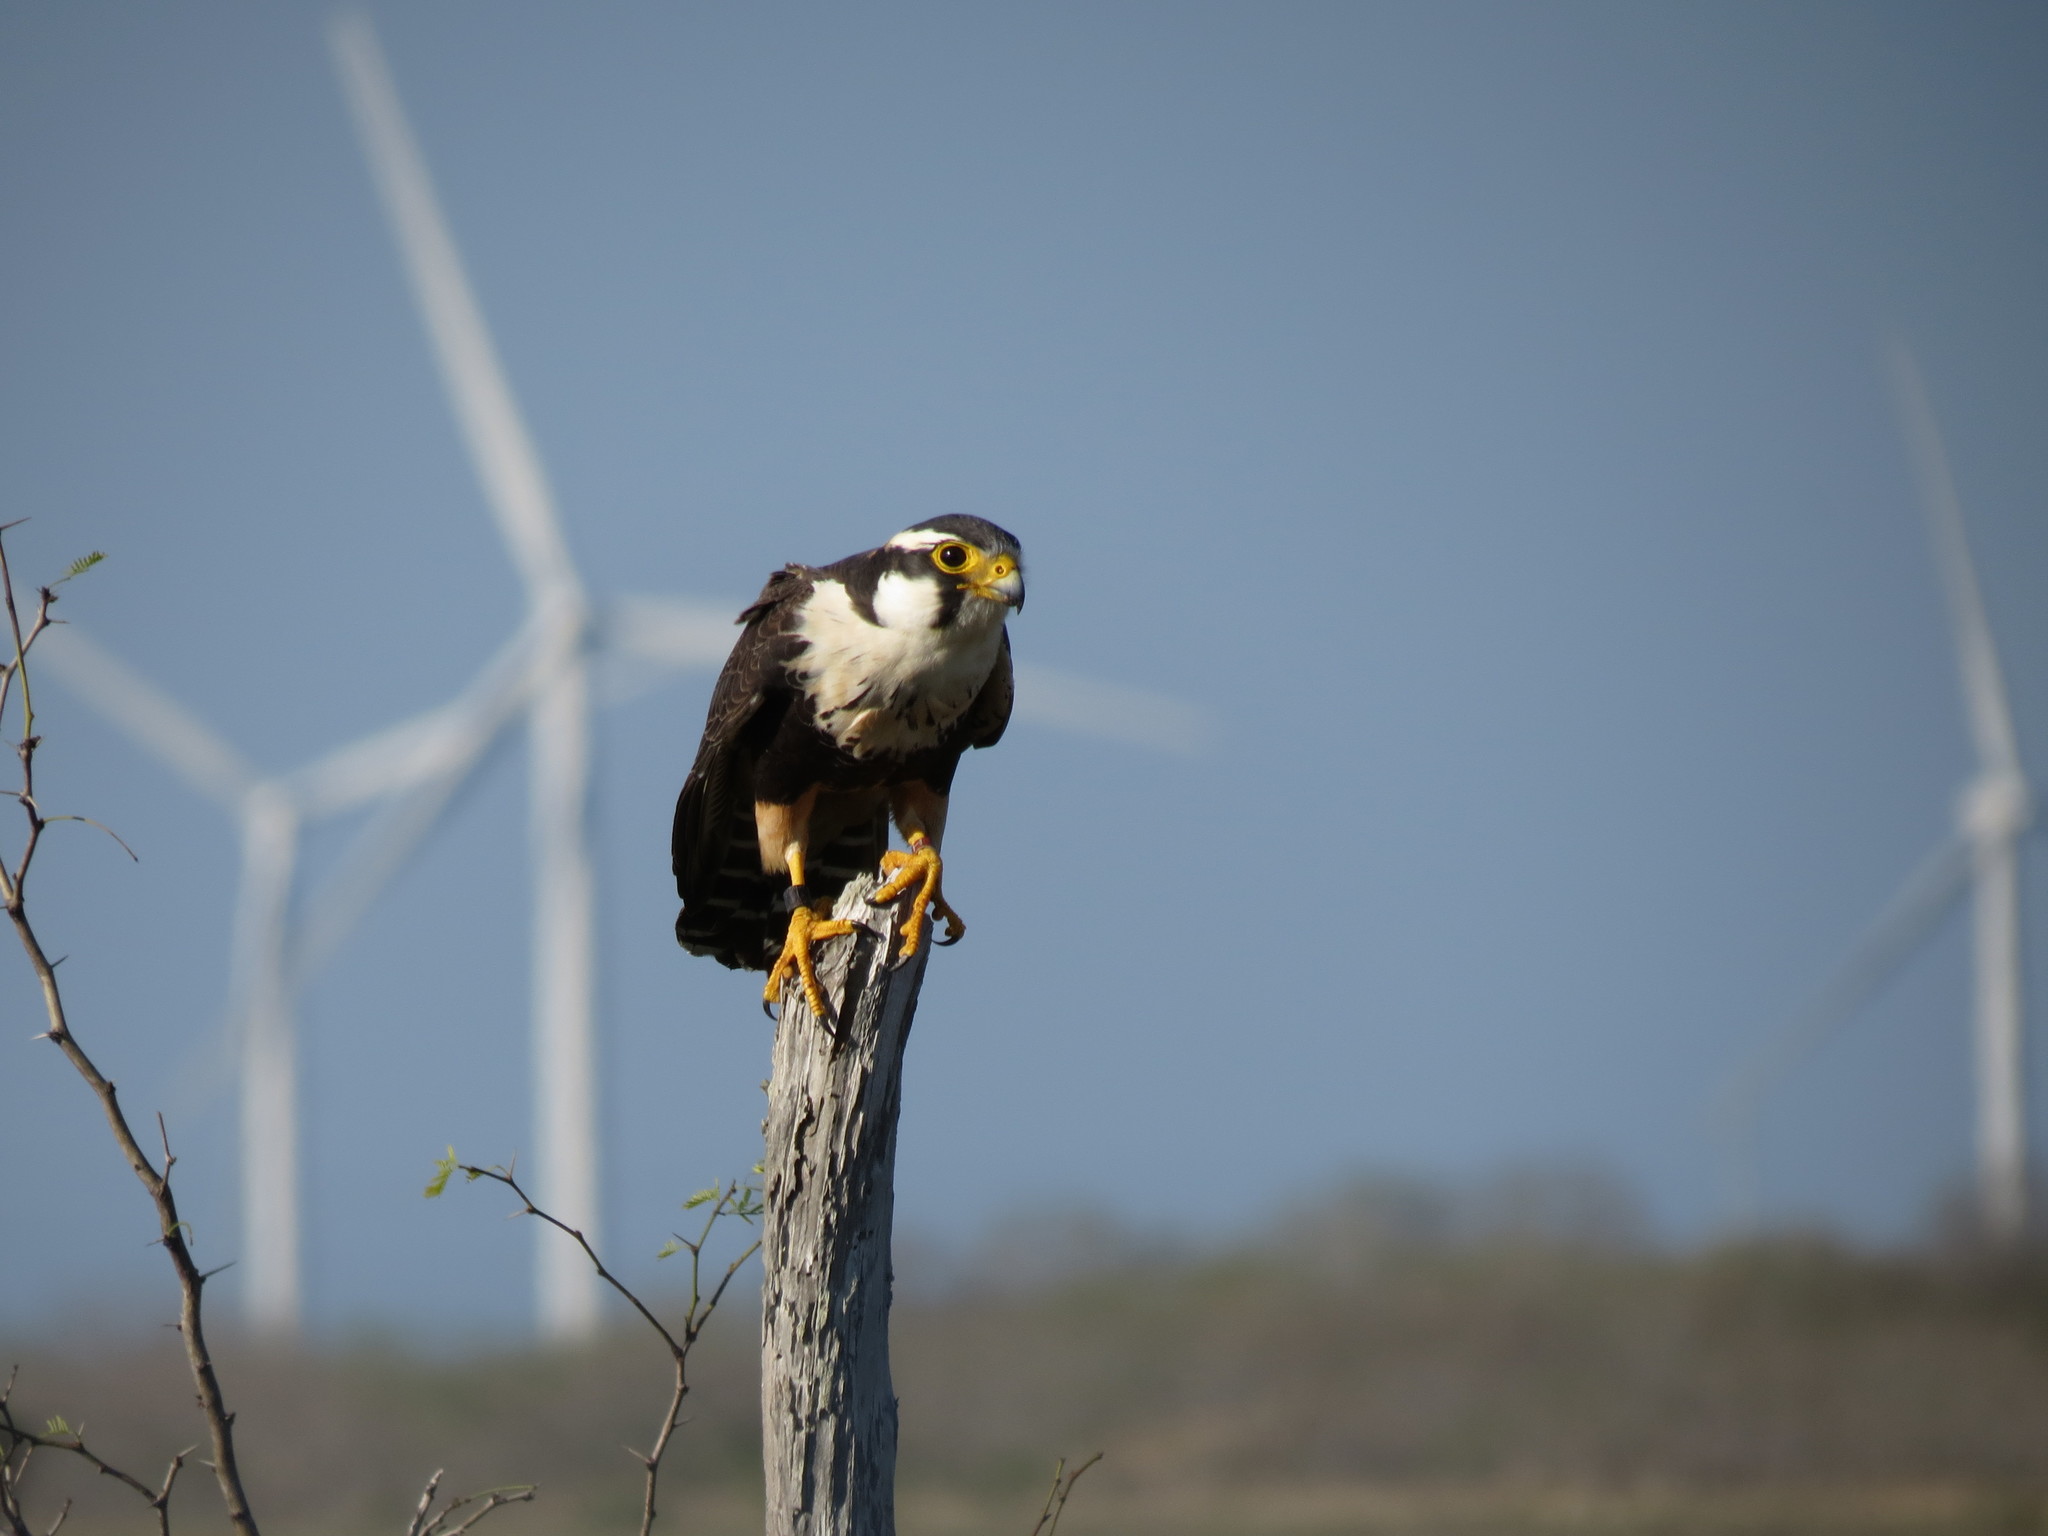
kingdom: Animalia
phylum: Chordata
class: Aves
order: Falconiformes
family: Falconidae
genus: Falco
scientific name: Falco femoralis
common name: Aplomado falcon
